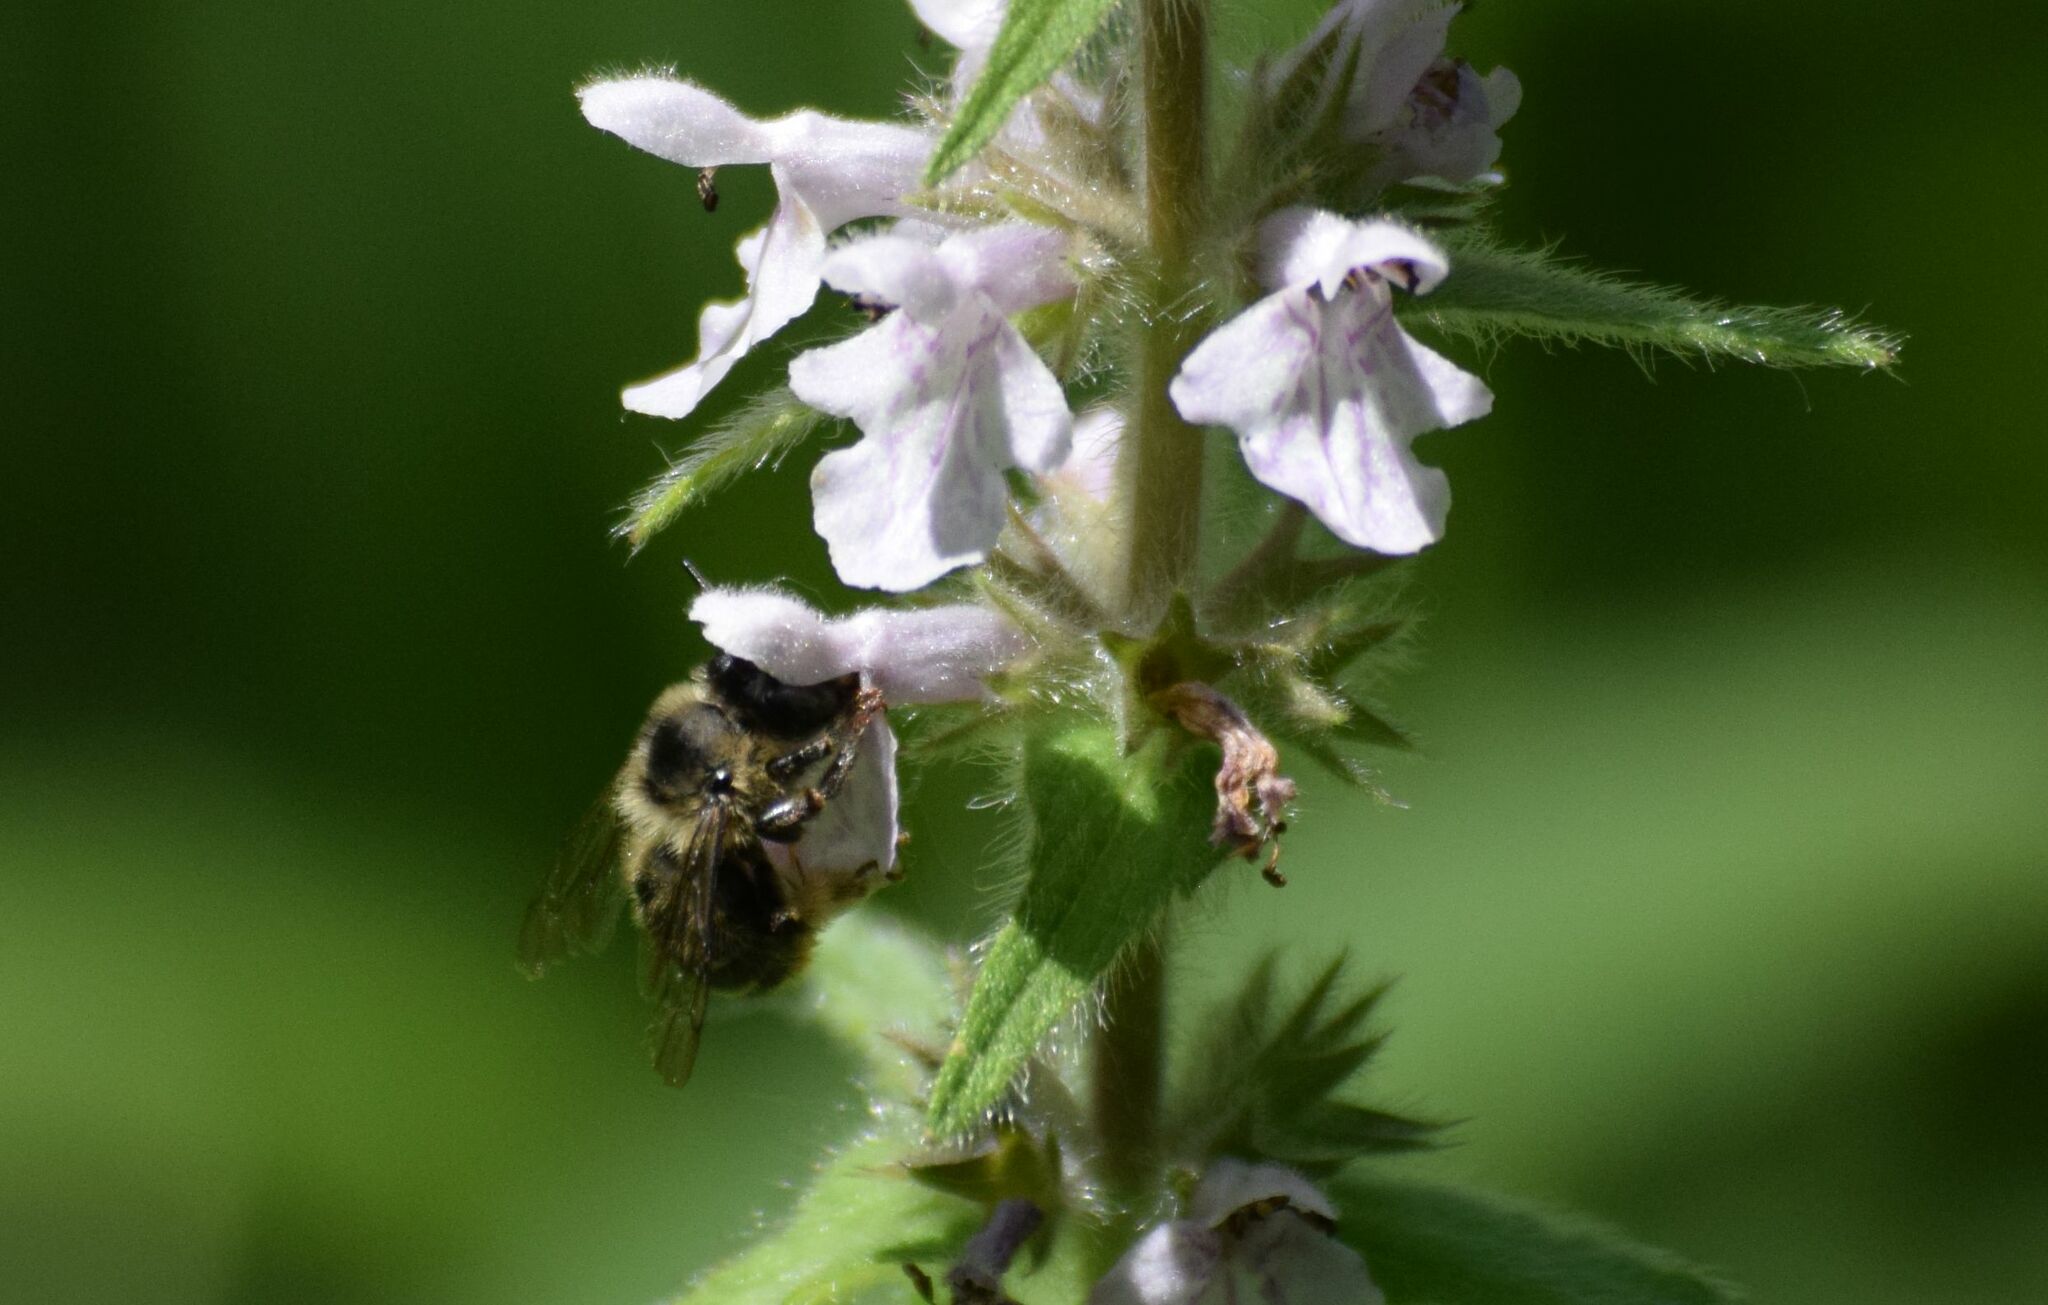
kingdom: Animalia
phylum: Arthropoda
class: Insecta
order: Hymenoptera
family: Apidae
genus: Anthophora
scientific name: Anthophora terminalis
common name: Orange-tipped wood-digger bee
